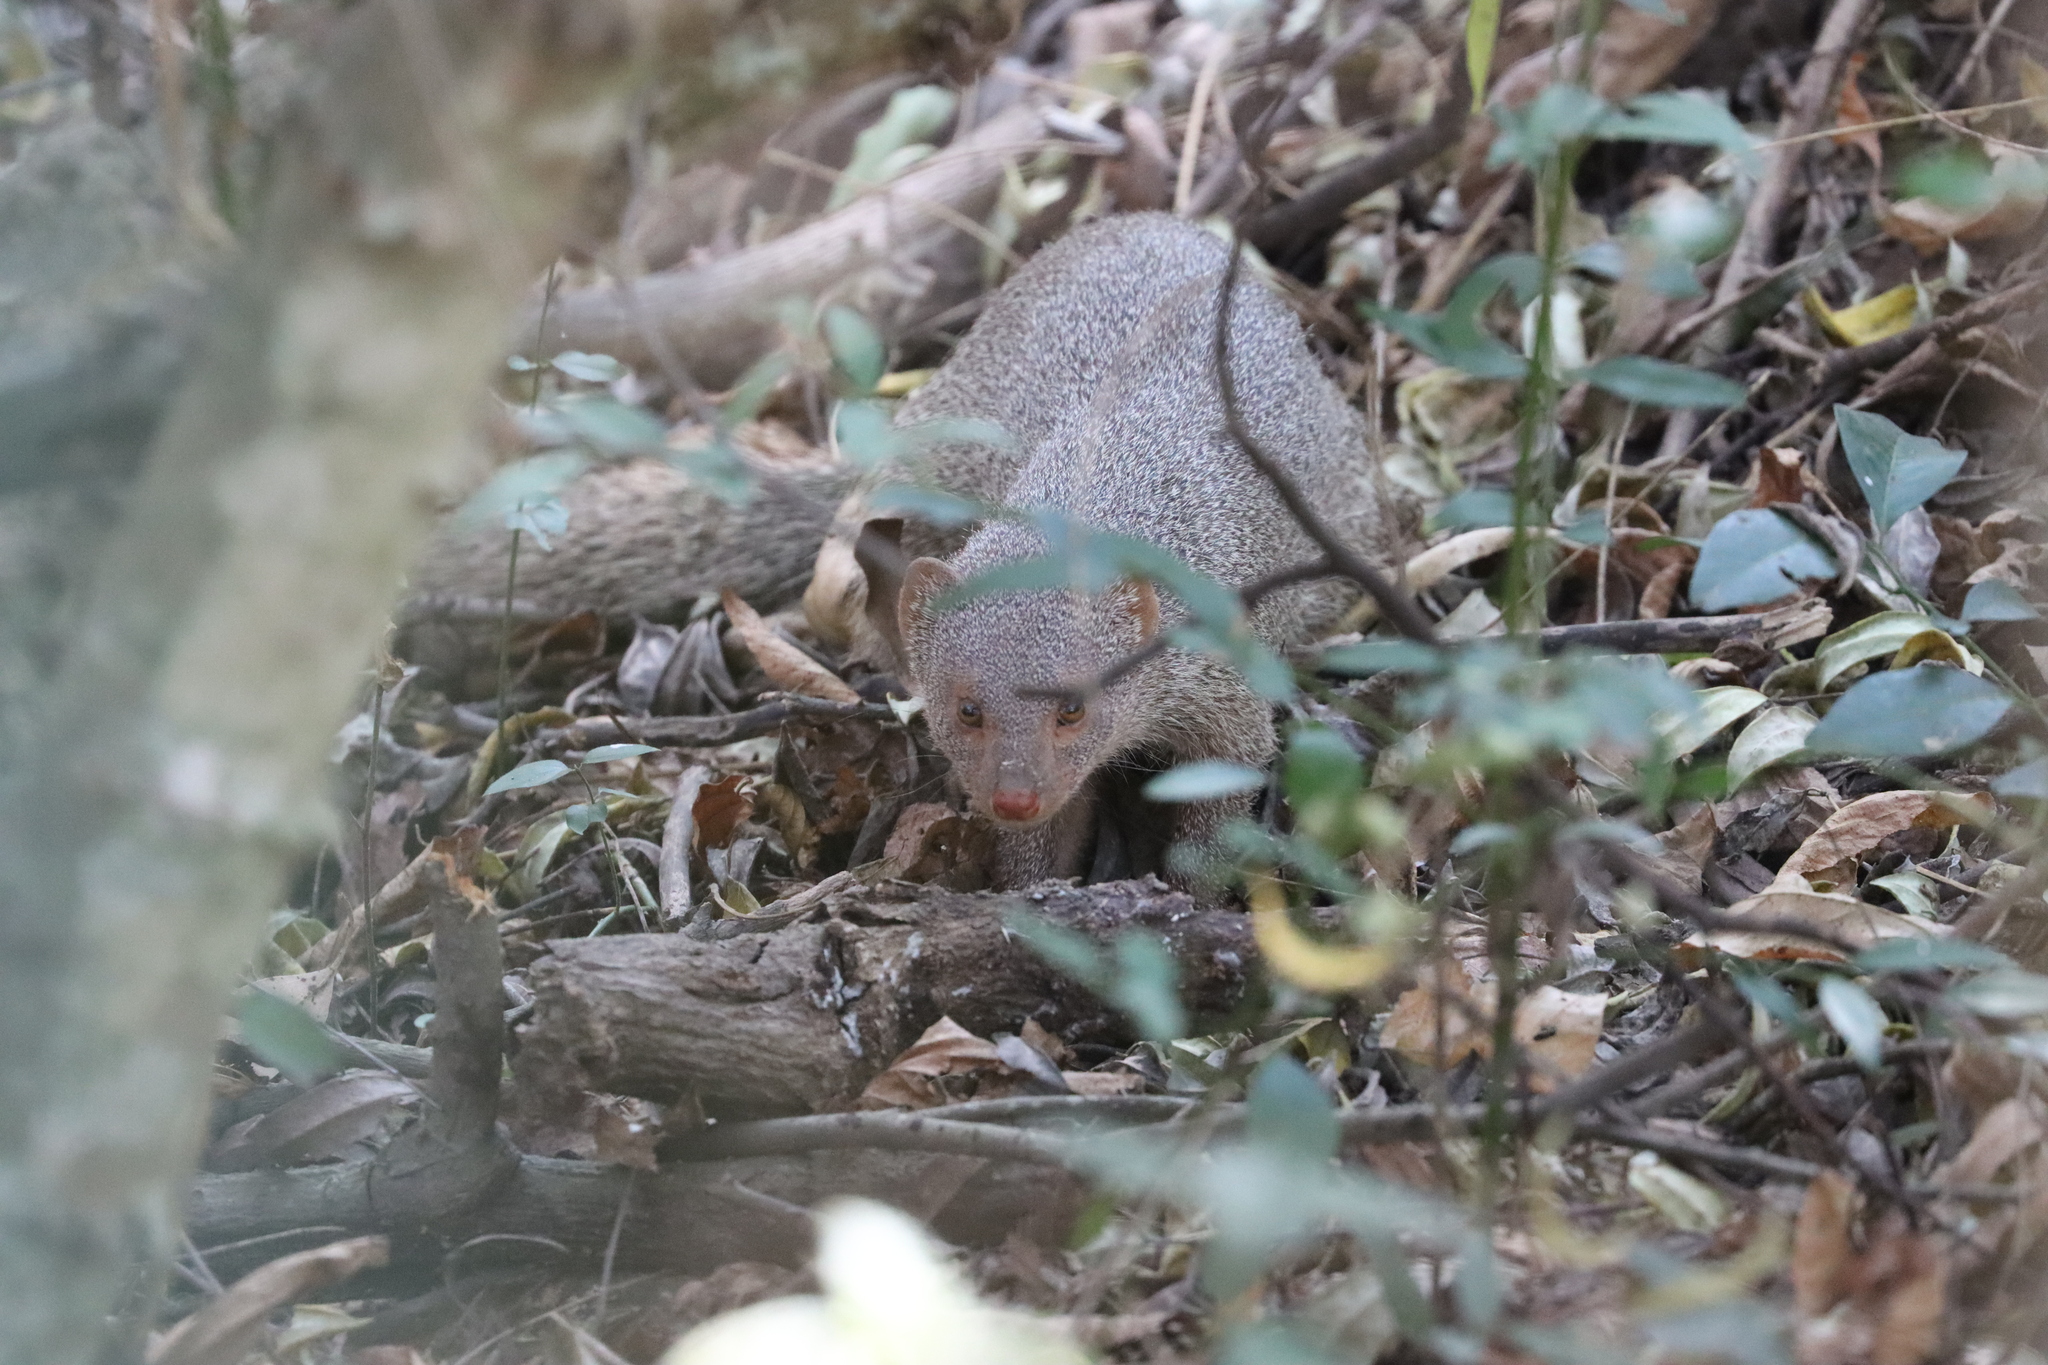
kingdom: Animalia
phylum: Chordata
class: Mammalia
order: Carnivora
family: Herpestidae
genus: Herpestes
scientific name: Herpestes edwardsi
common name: Indian gray mongoose
